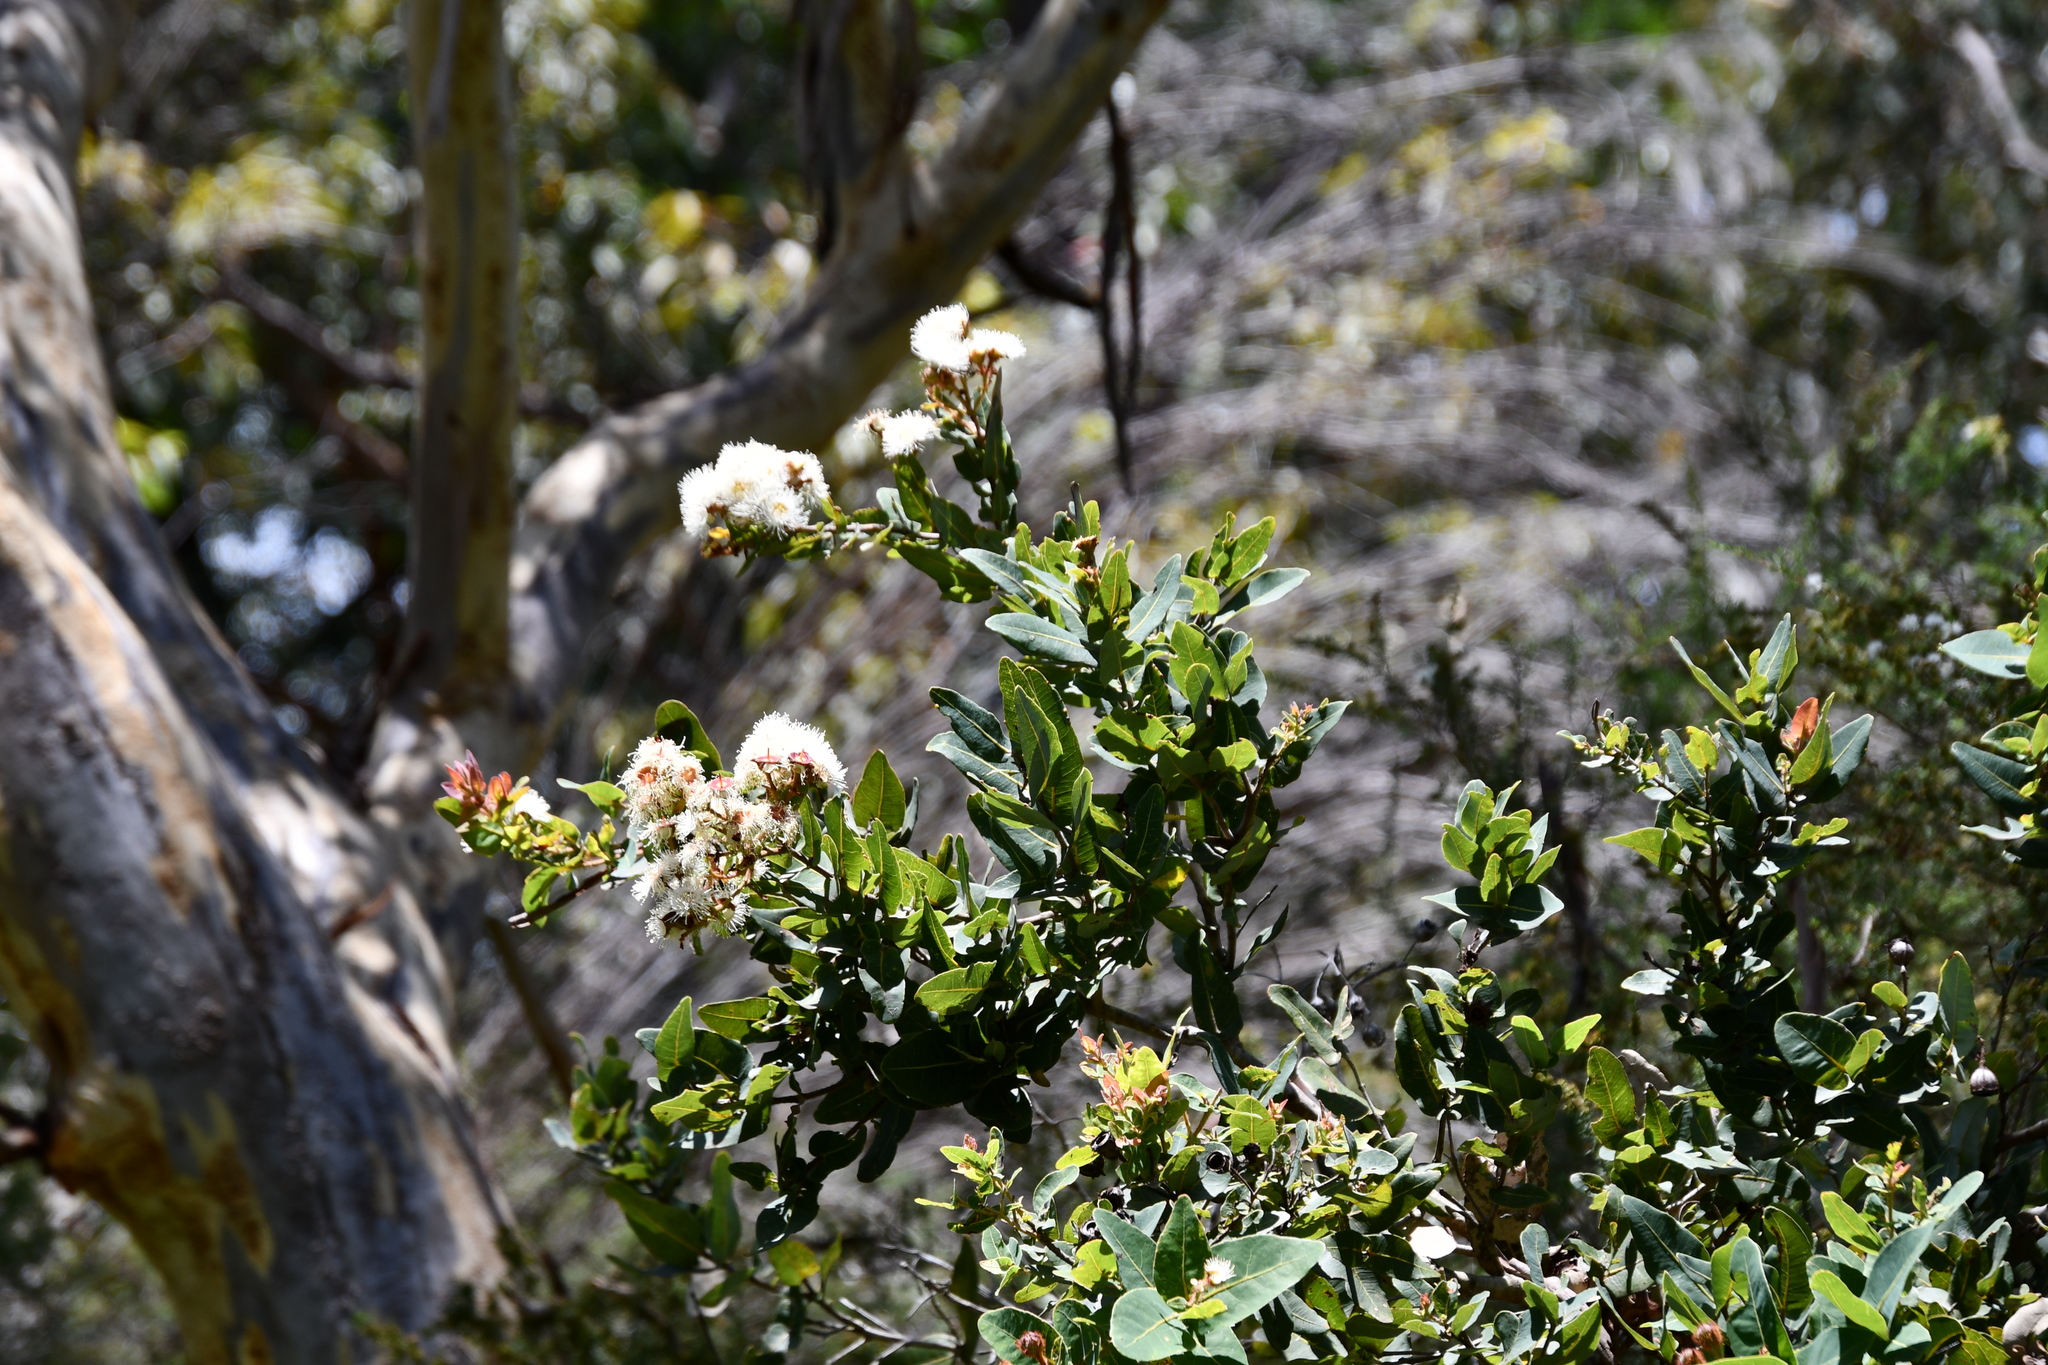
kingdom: Plantae
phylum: Tracheophyta
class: Magnoliopsida
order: Myrtales
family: Myrtaceae
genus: Angophora
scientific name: Angophora hispida
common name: Dwarf-apple
